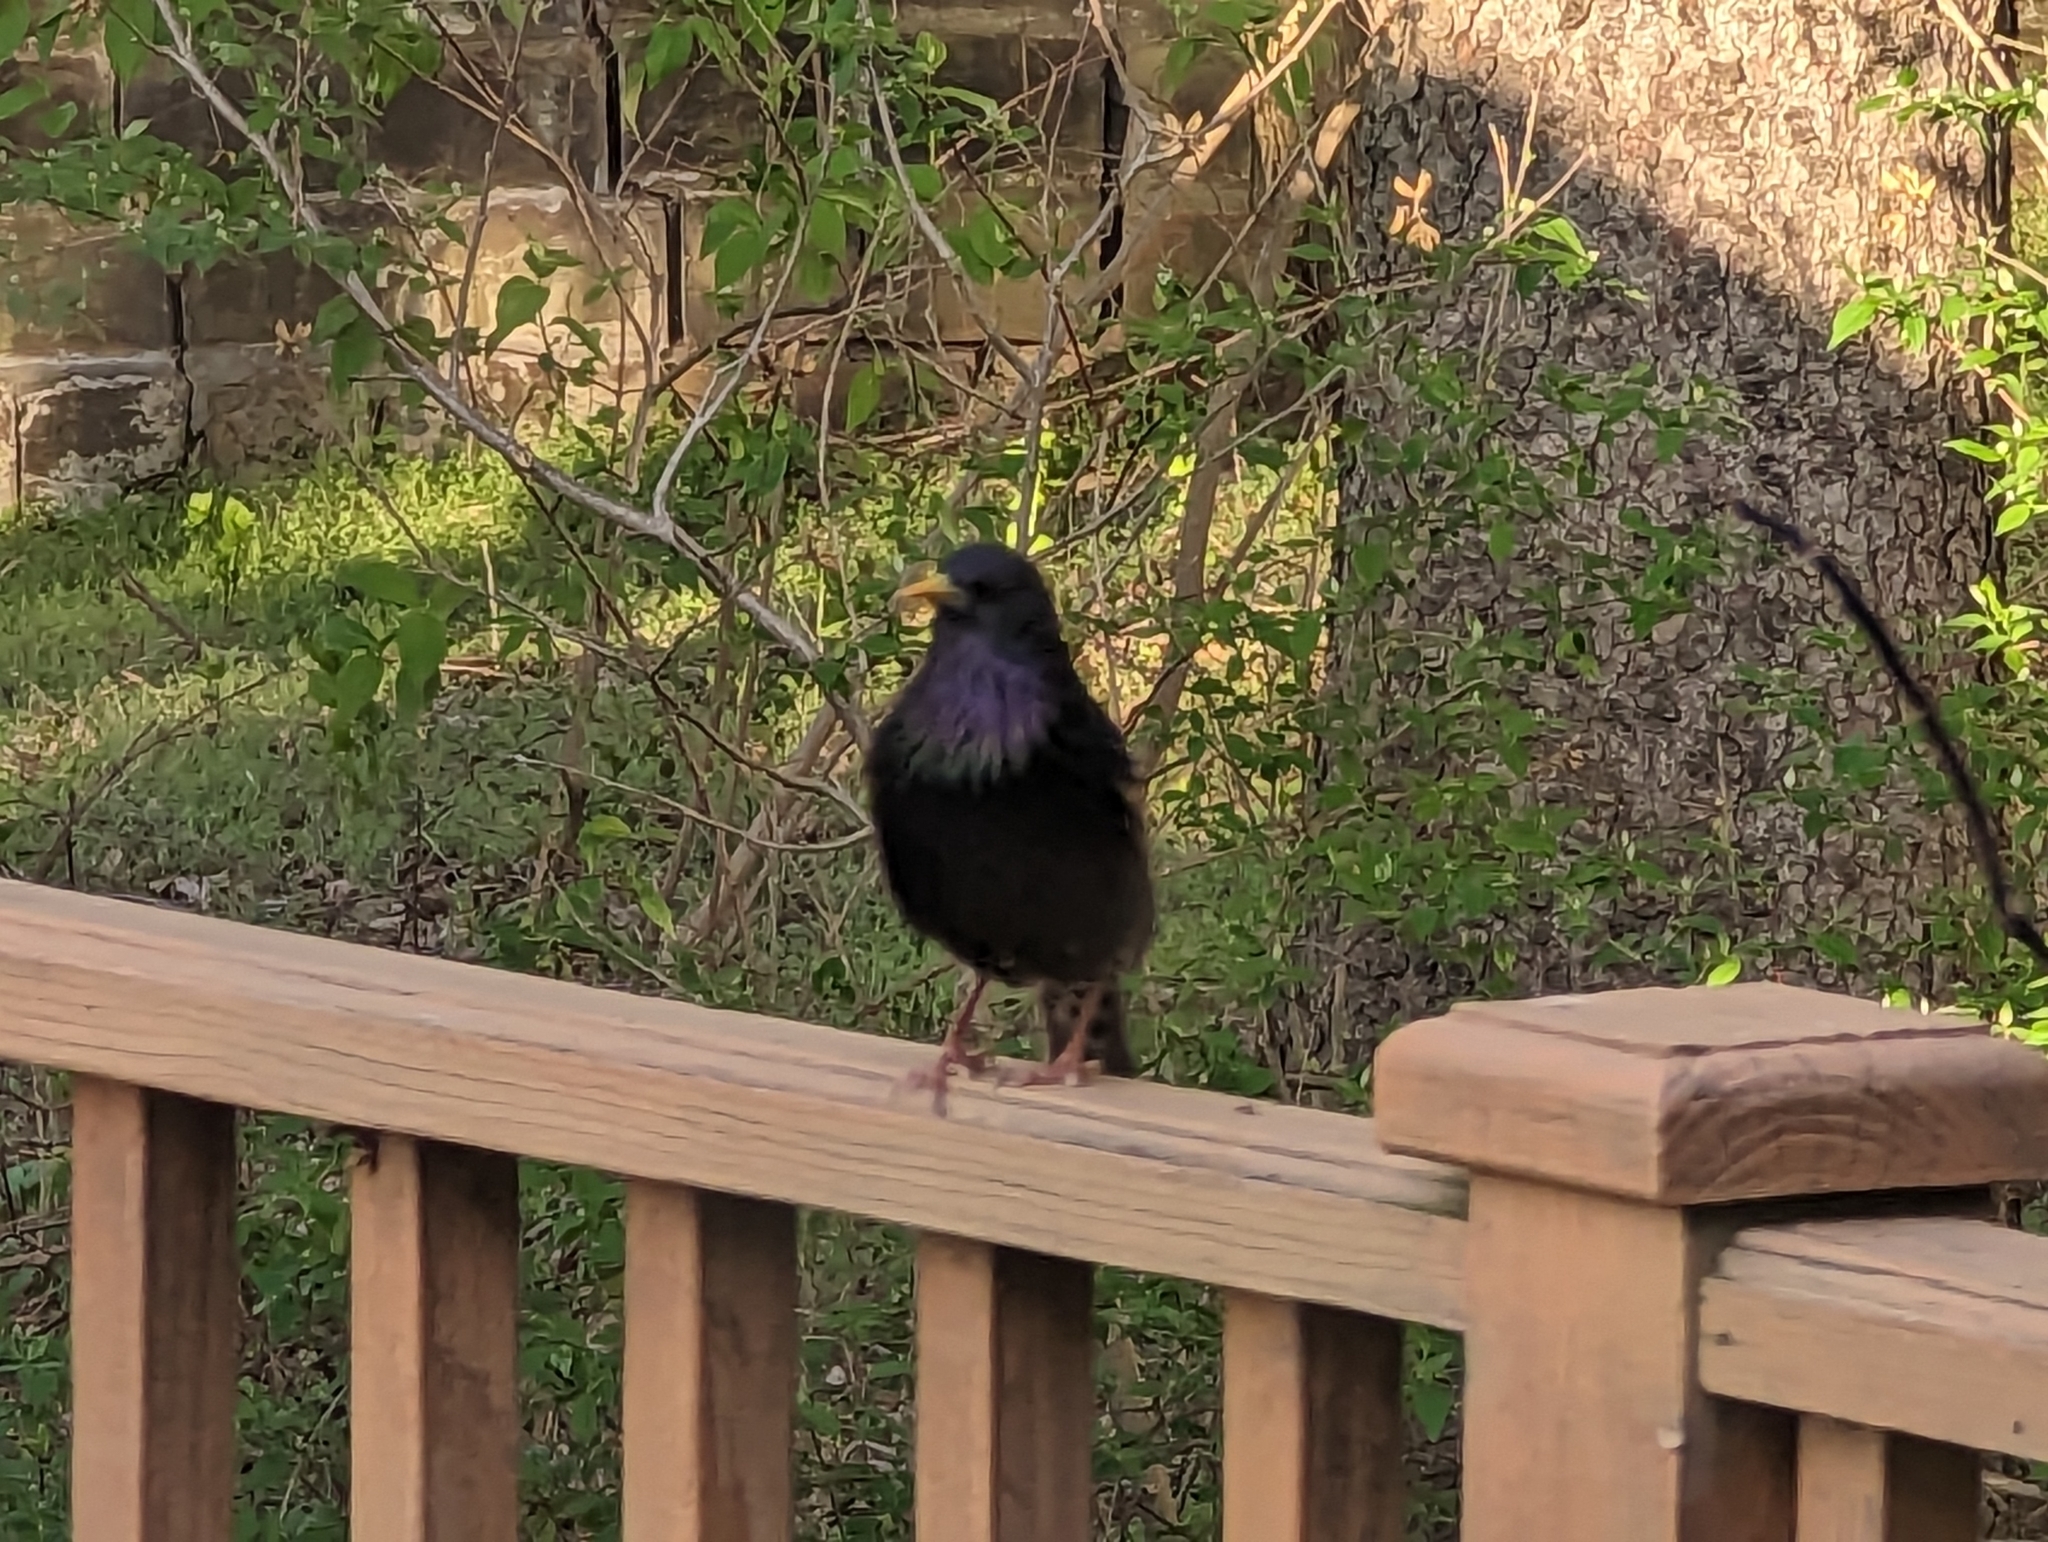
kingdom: Animalia
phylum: Chordata
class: Aves
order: Passeriformes
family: Sturnidae
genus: Sturnus
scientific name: Sturnus vulgaris
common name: Common starling
